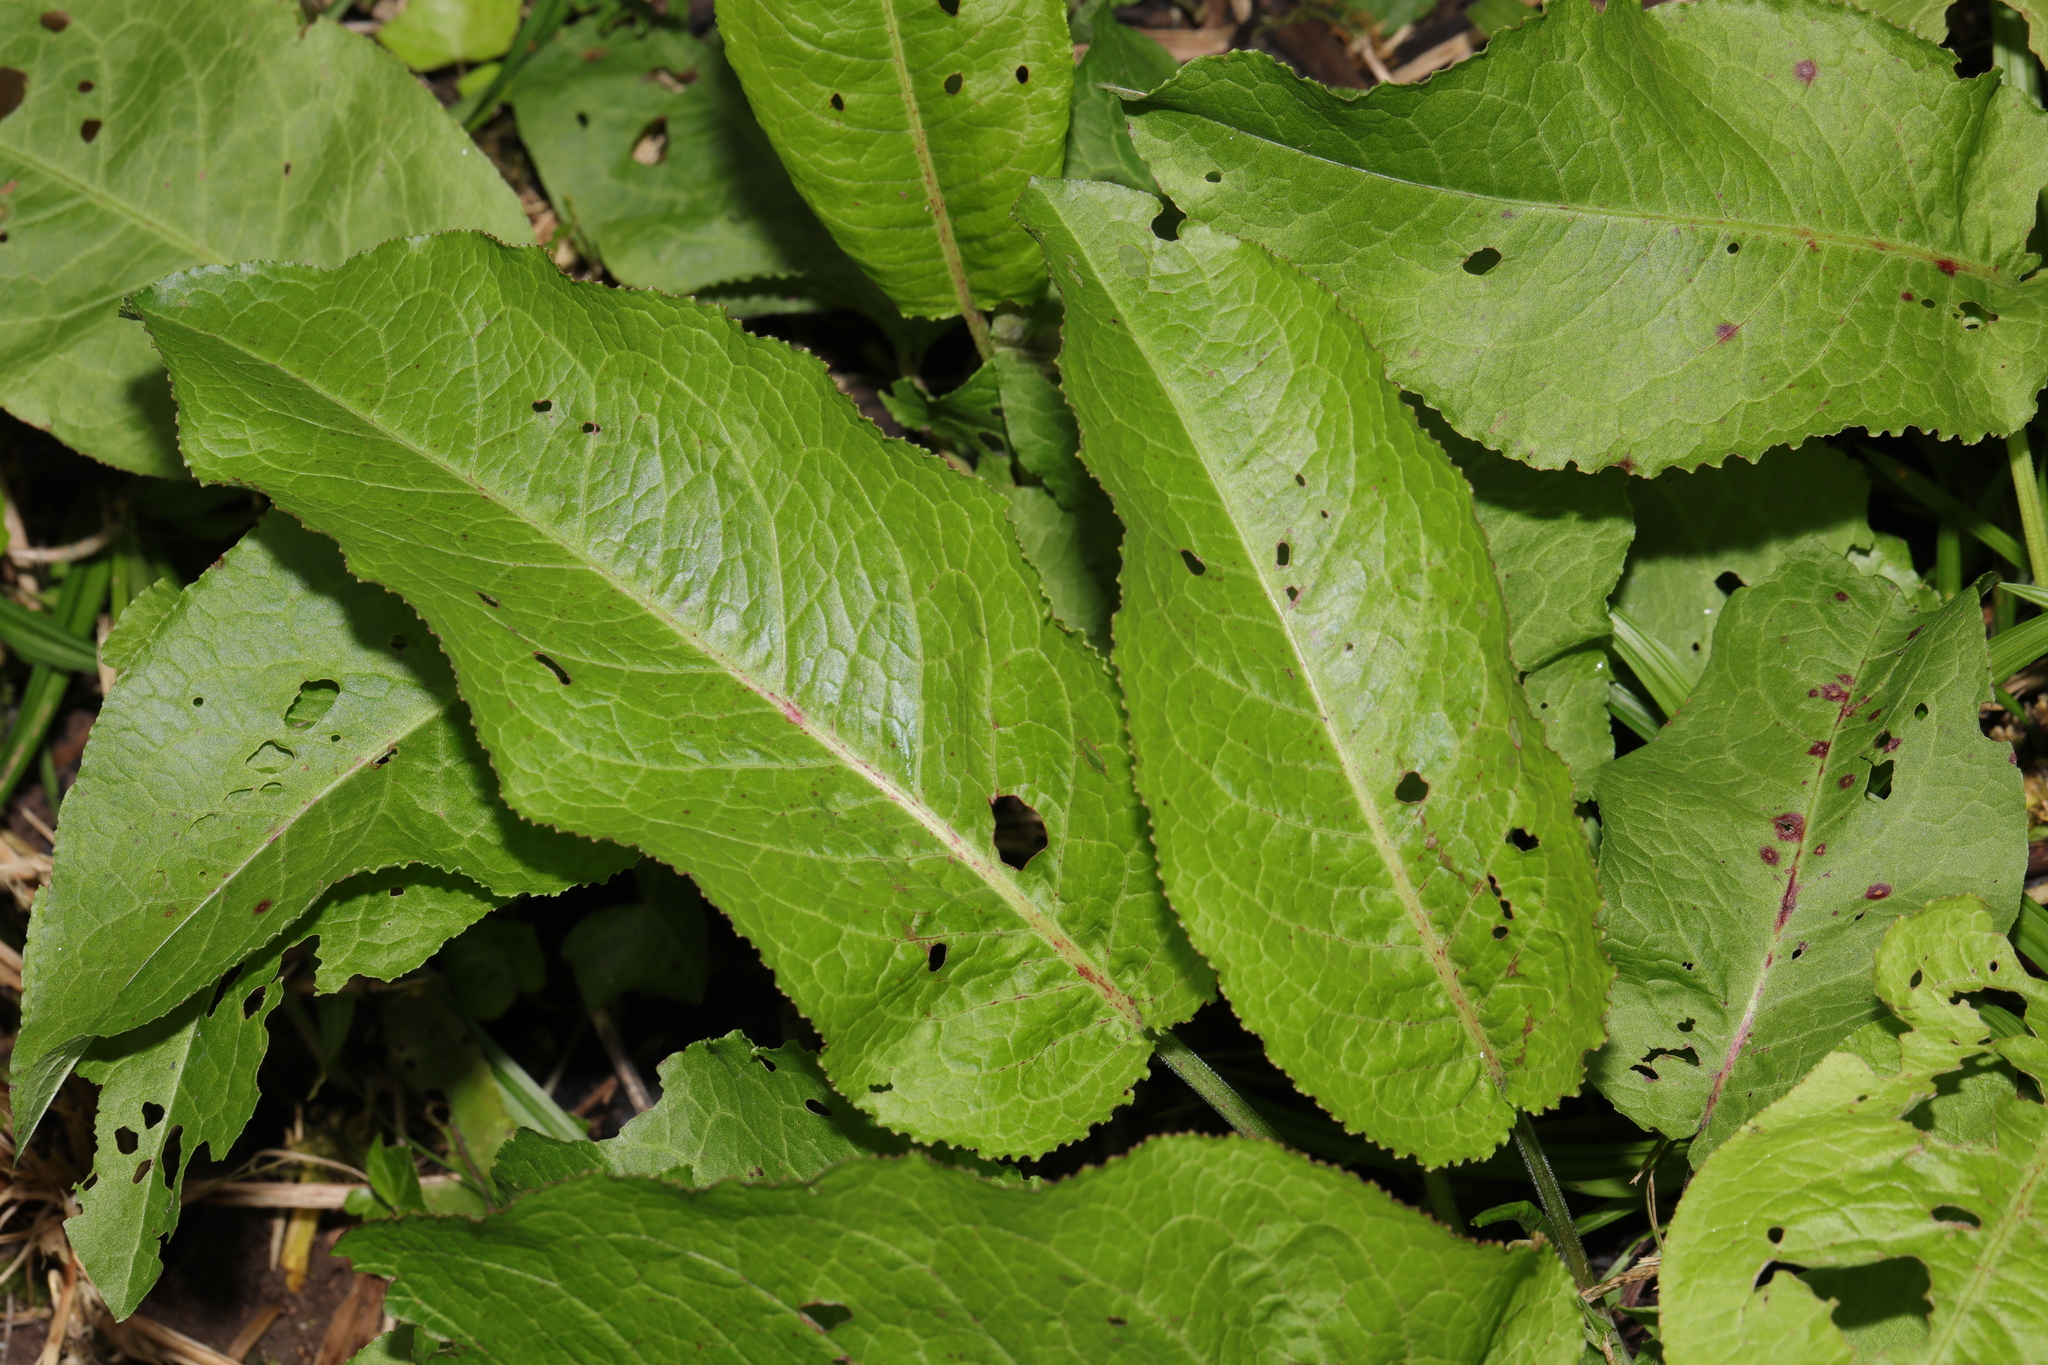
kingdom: Plantae
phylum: Tracheophyta
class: Magnoliopsida
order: Caryophyllales
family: Polygonaceae
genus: Rumex
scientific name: Rumex obtusifolius
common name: Bitter dock
